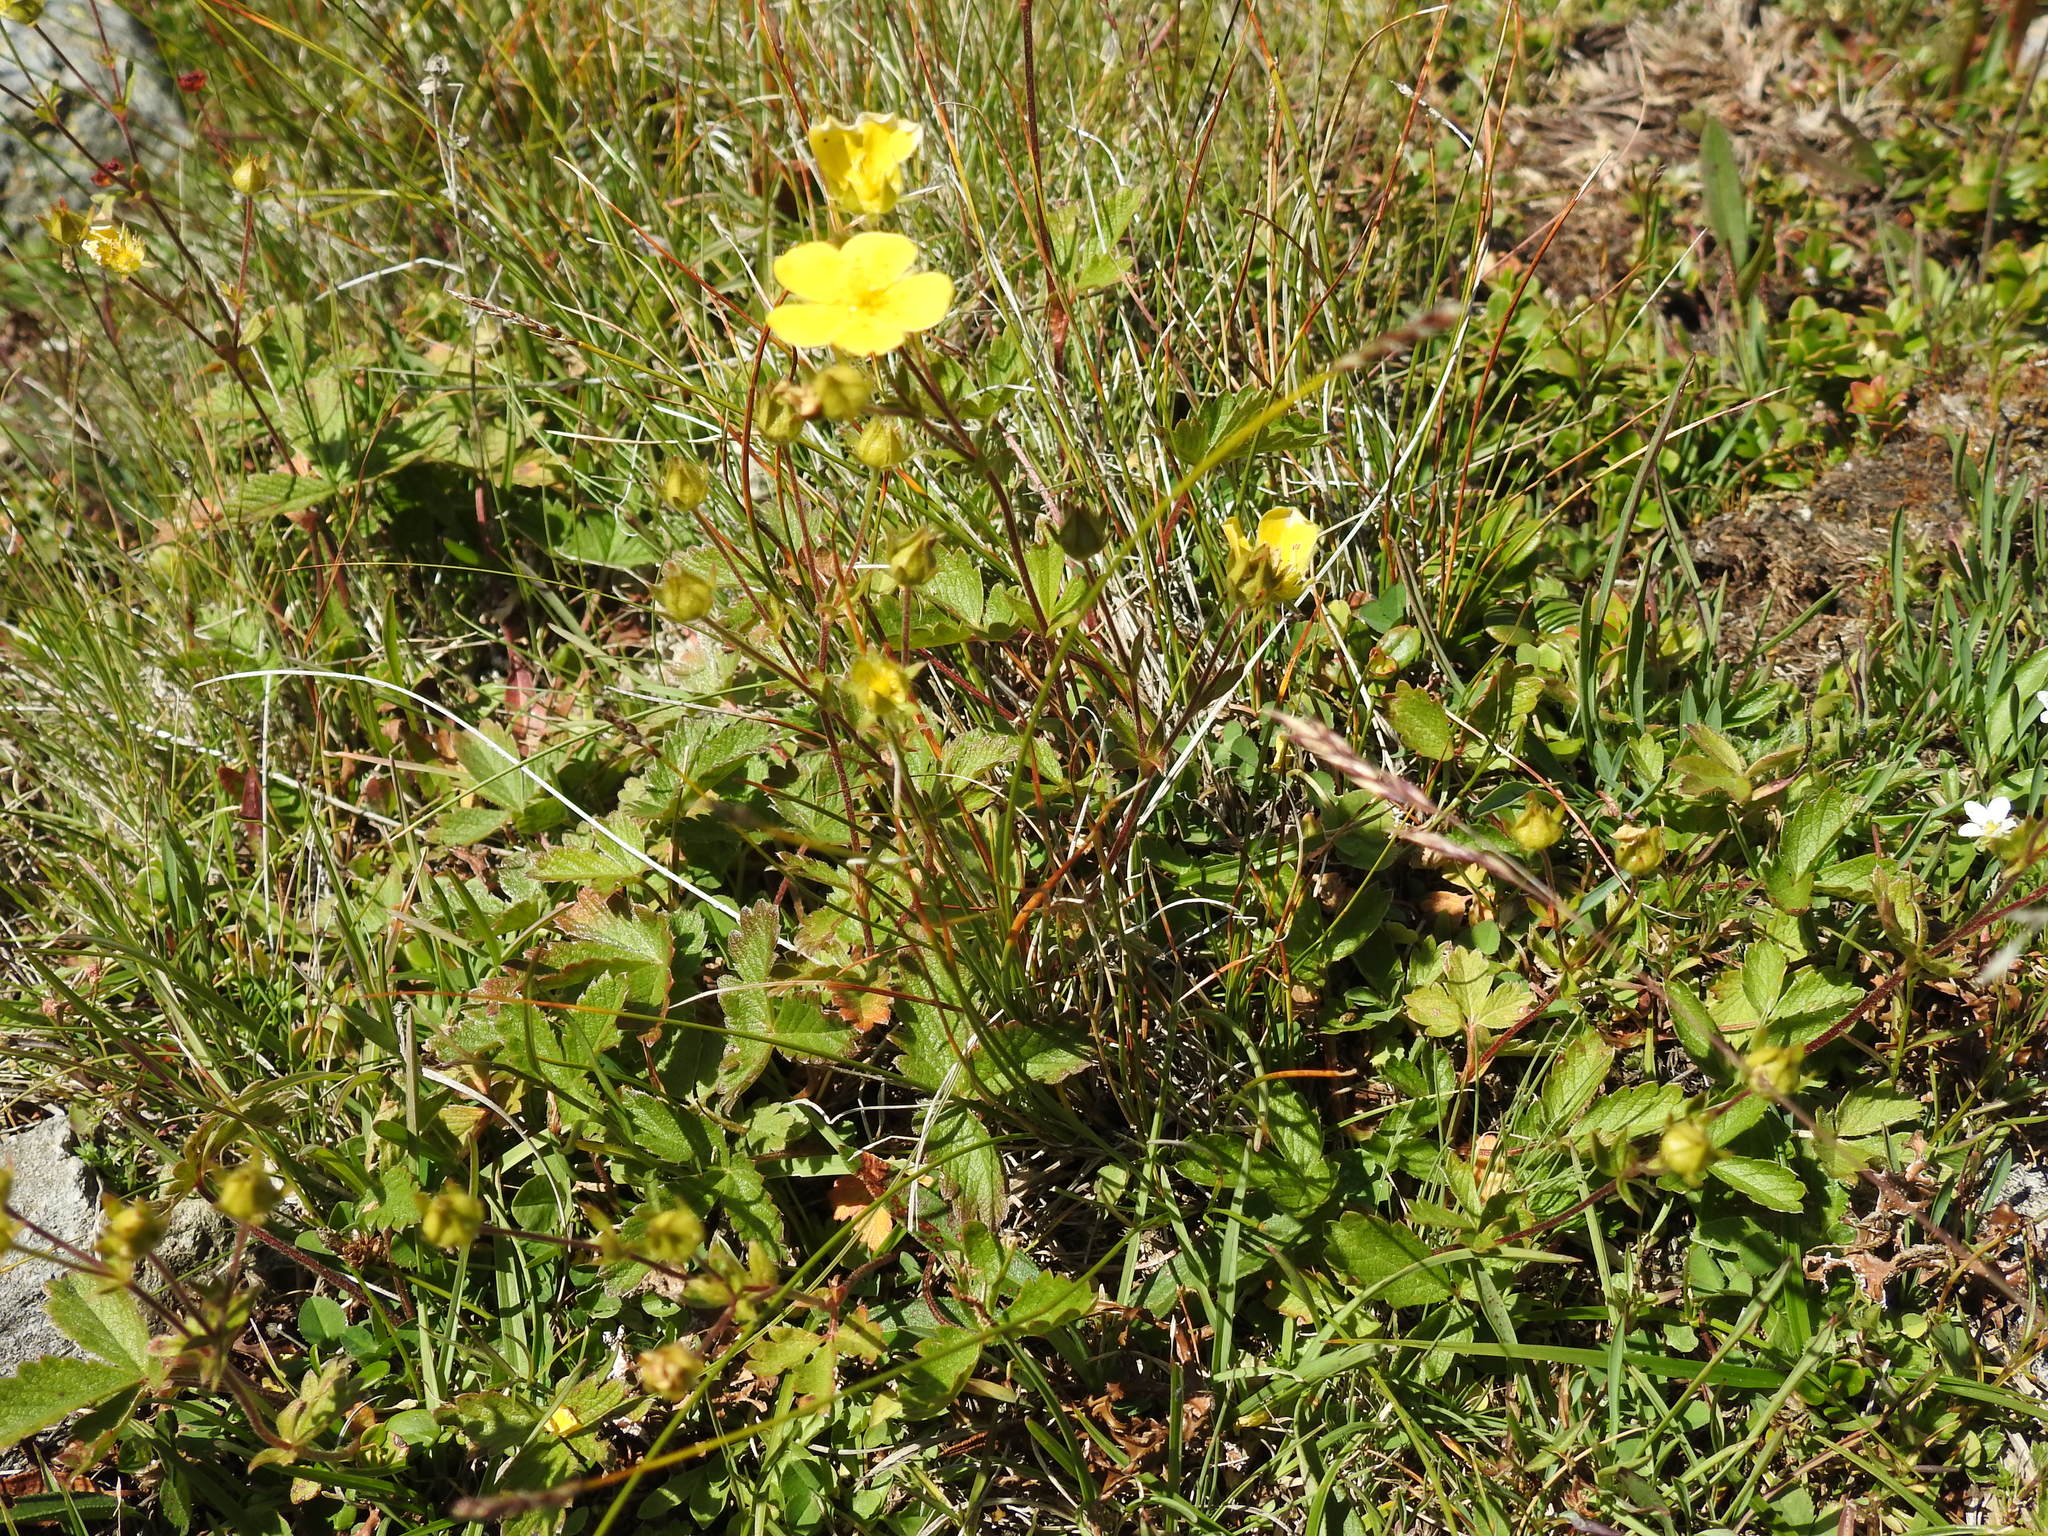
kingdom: Plantae
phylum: Tracheophyta
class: Magnoliopsida
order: Rosales
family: Rosaceae
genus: Potentilla
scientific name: Potentilla grandiflora
